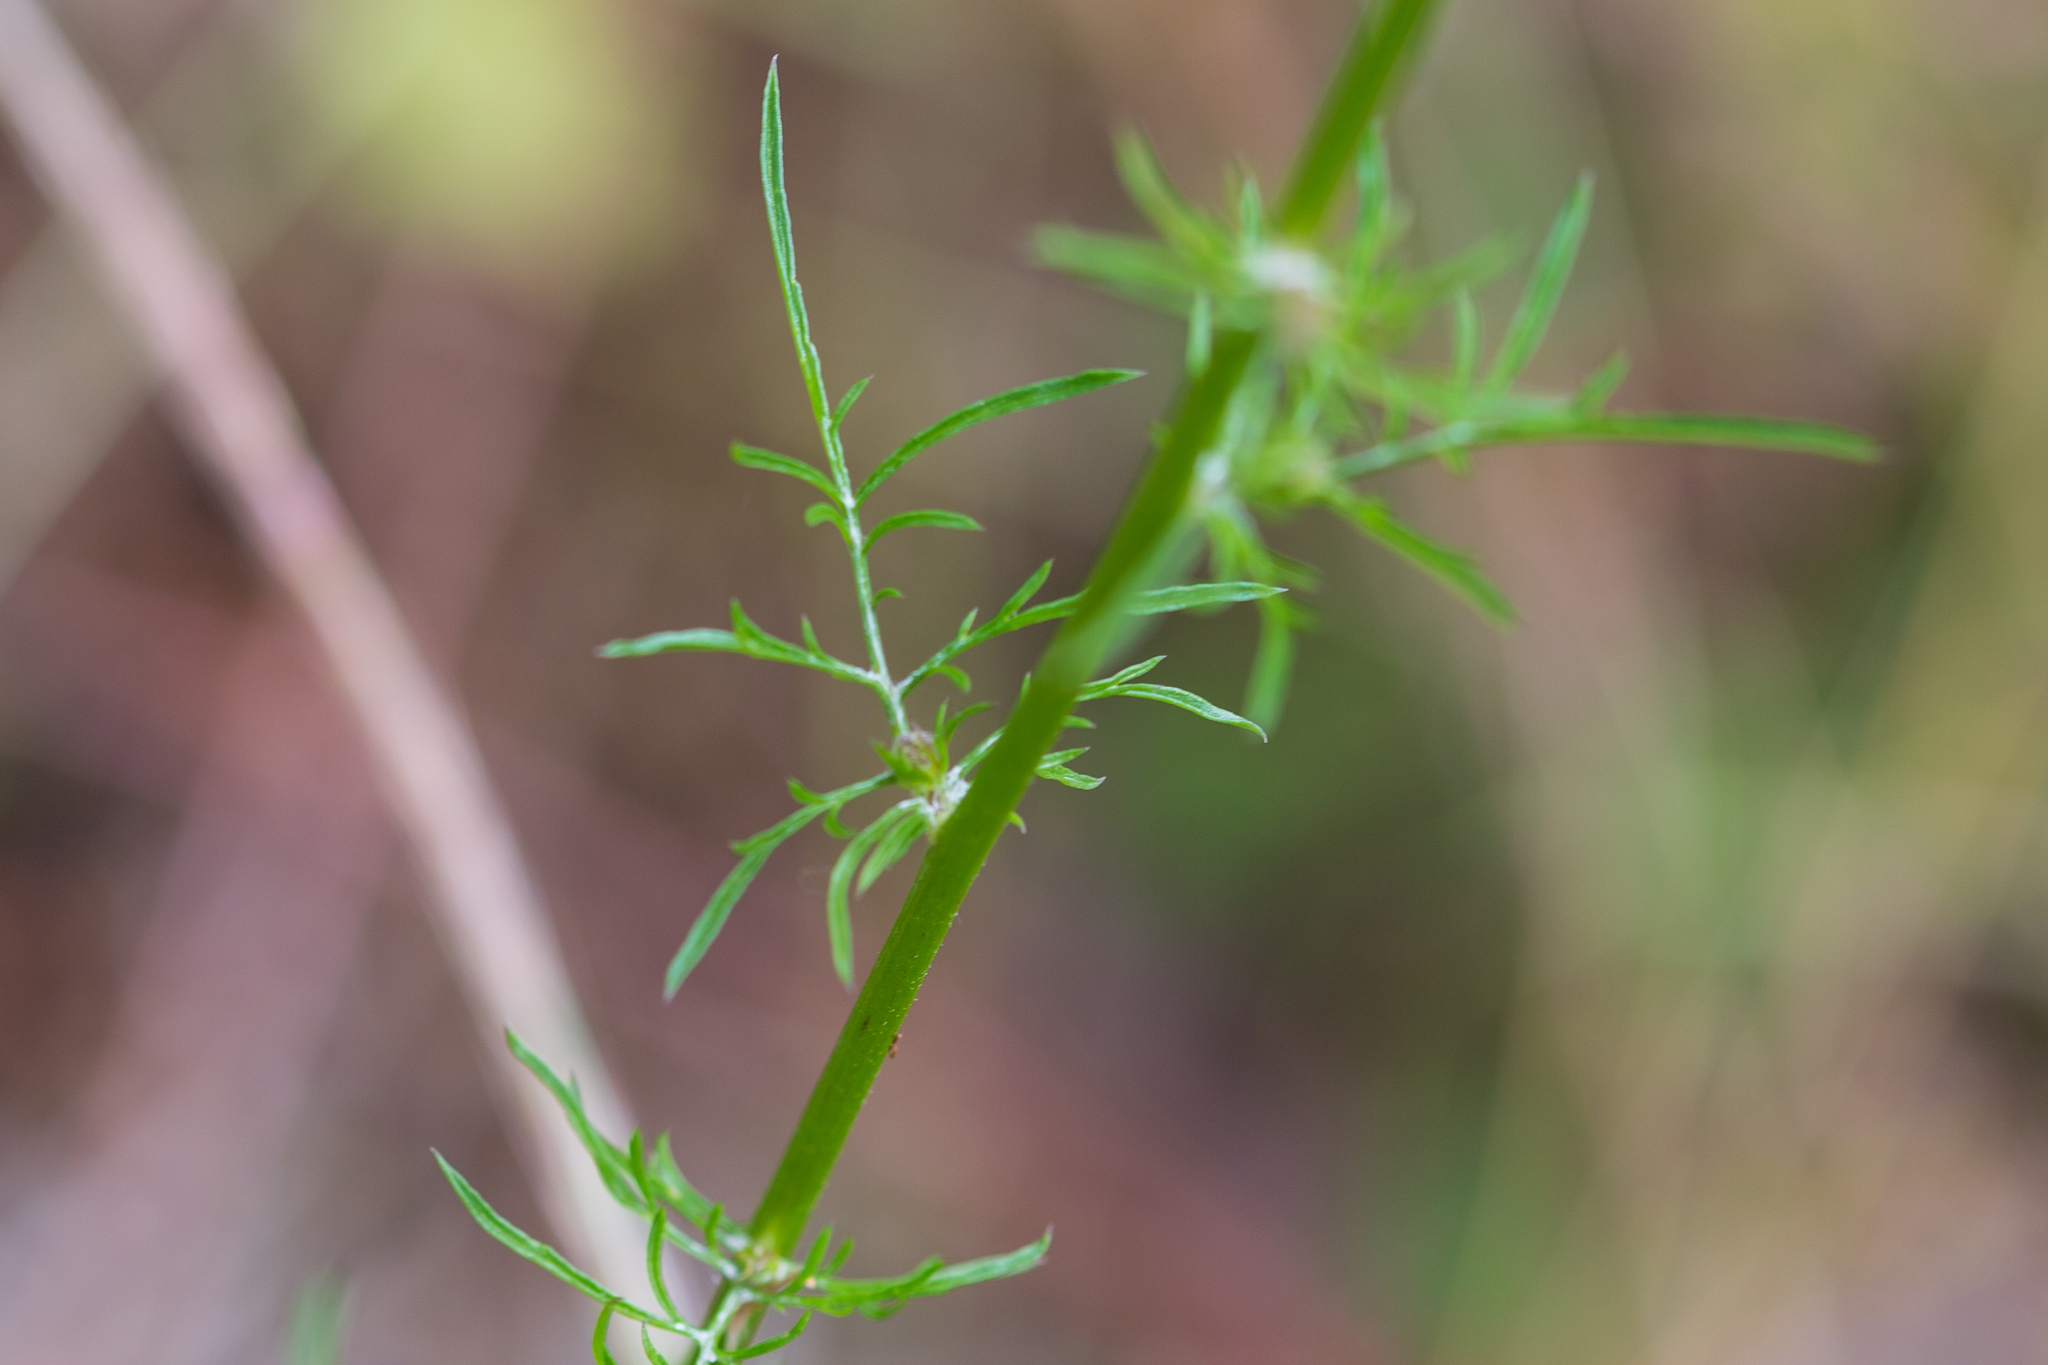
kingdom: Plantae
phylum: Tracheophyta
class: Magnoliopsida
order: Ericales
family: Polemoniaceae
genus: Gilia
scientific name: Gilia capitata
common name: Bluehead gilia
